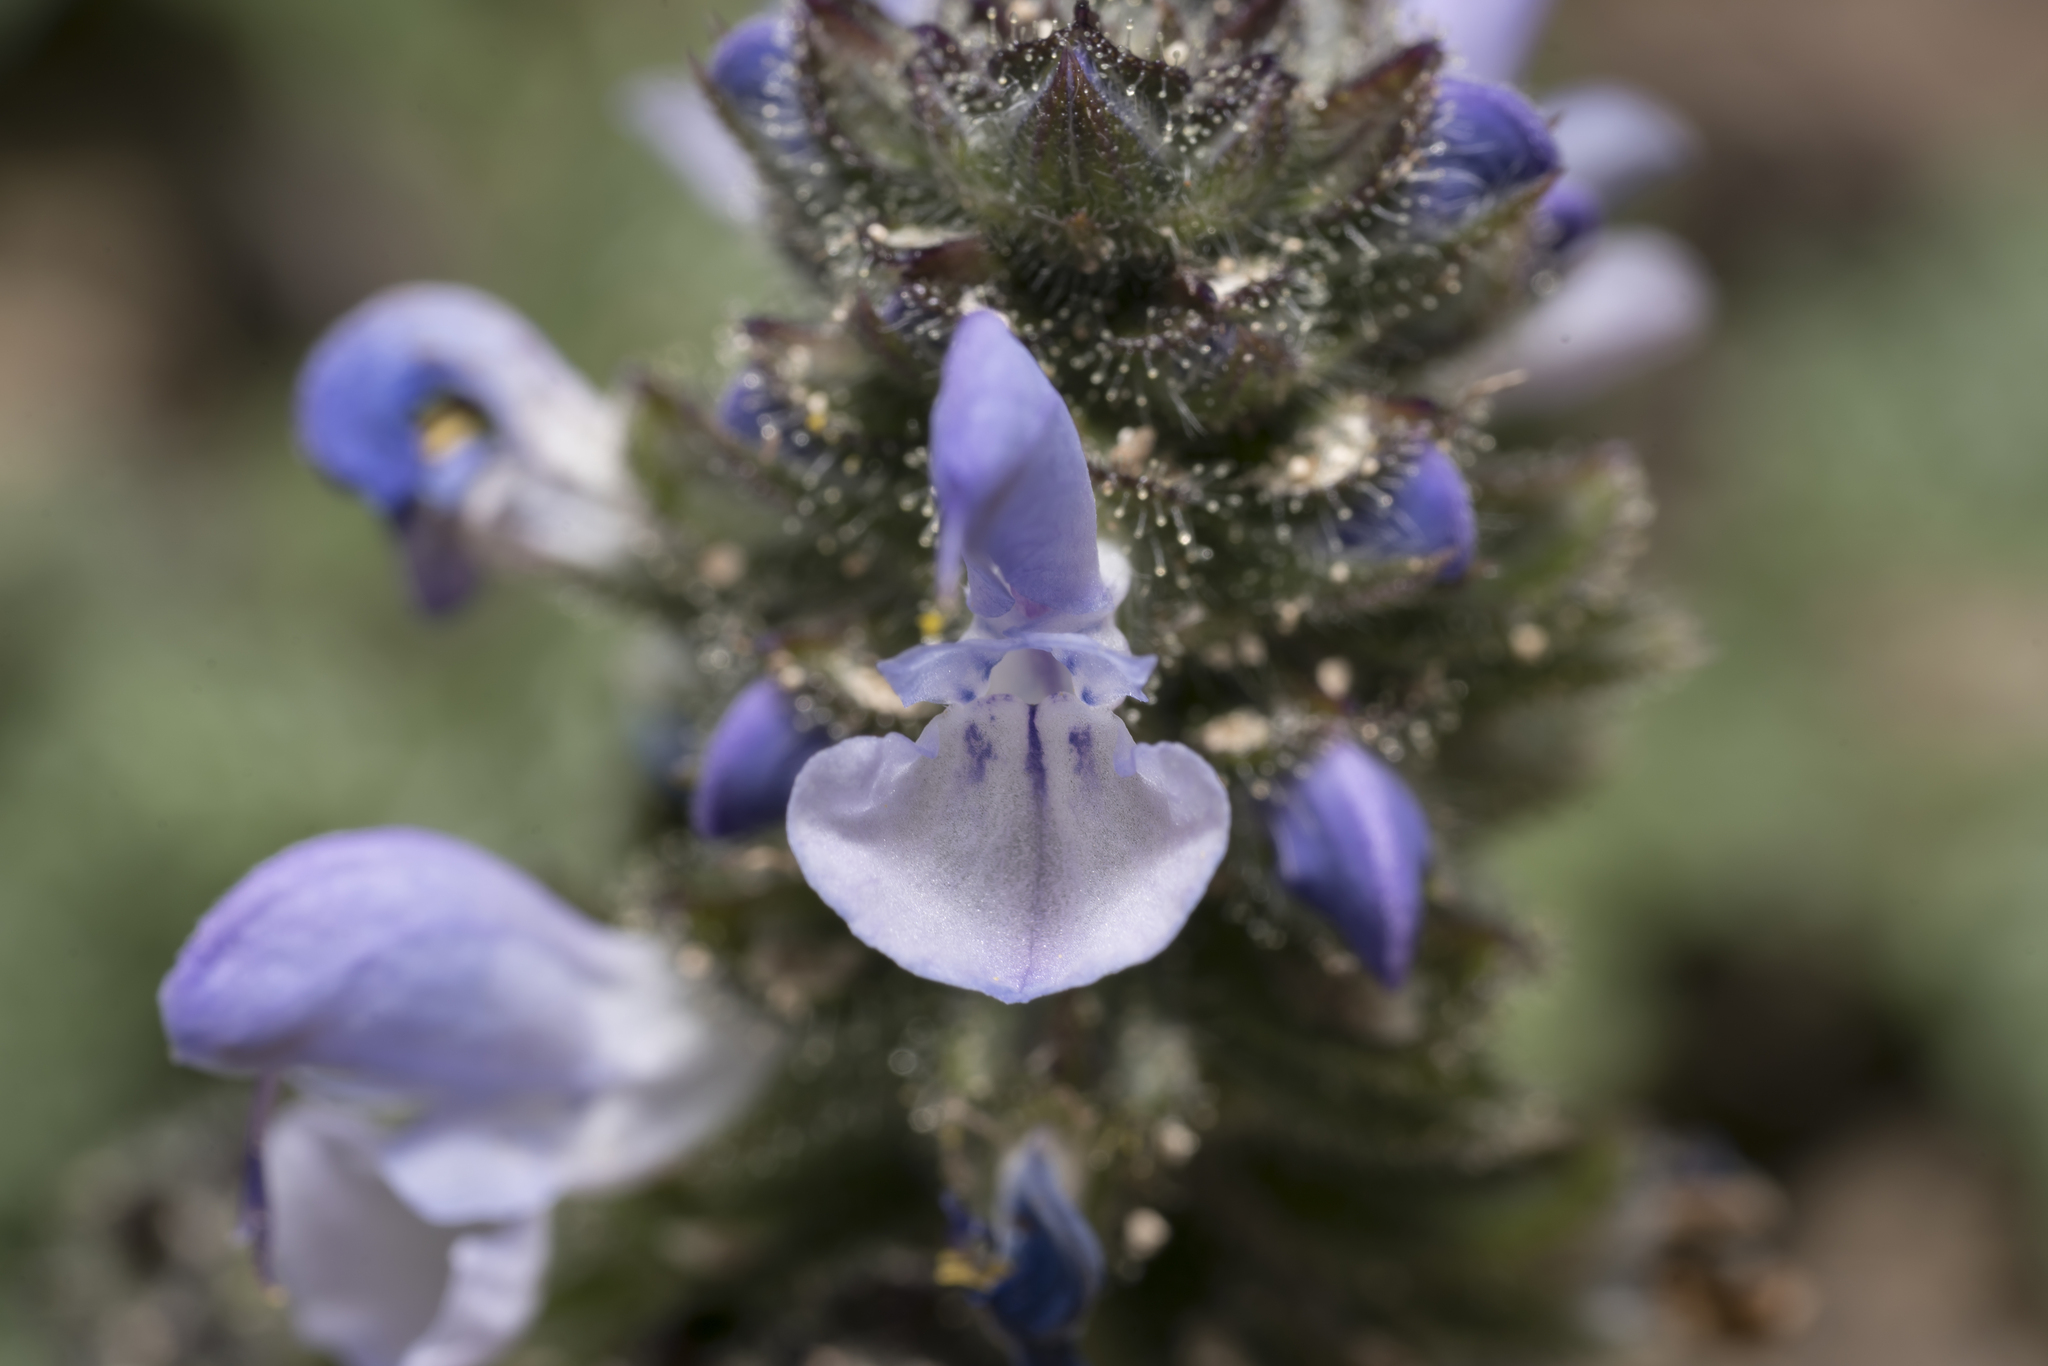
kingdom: Plantae
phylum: Tracheophyta
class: Magnoliopsida
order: Lamiales
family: Lamiaceae
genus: Salvia
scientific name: Salvia clandestina
